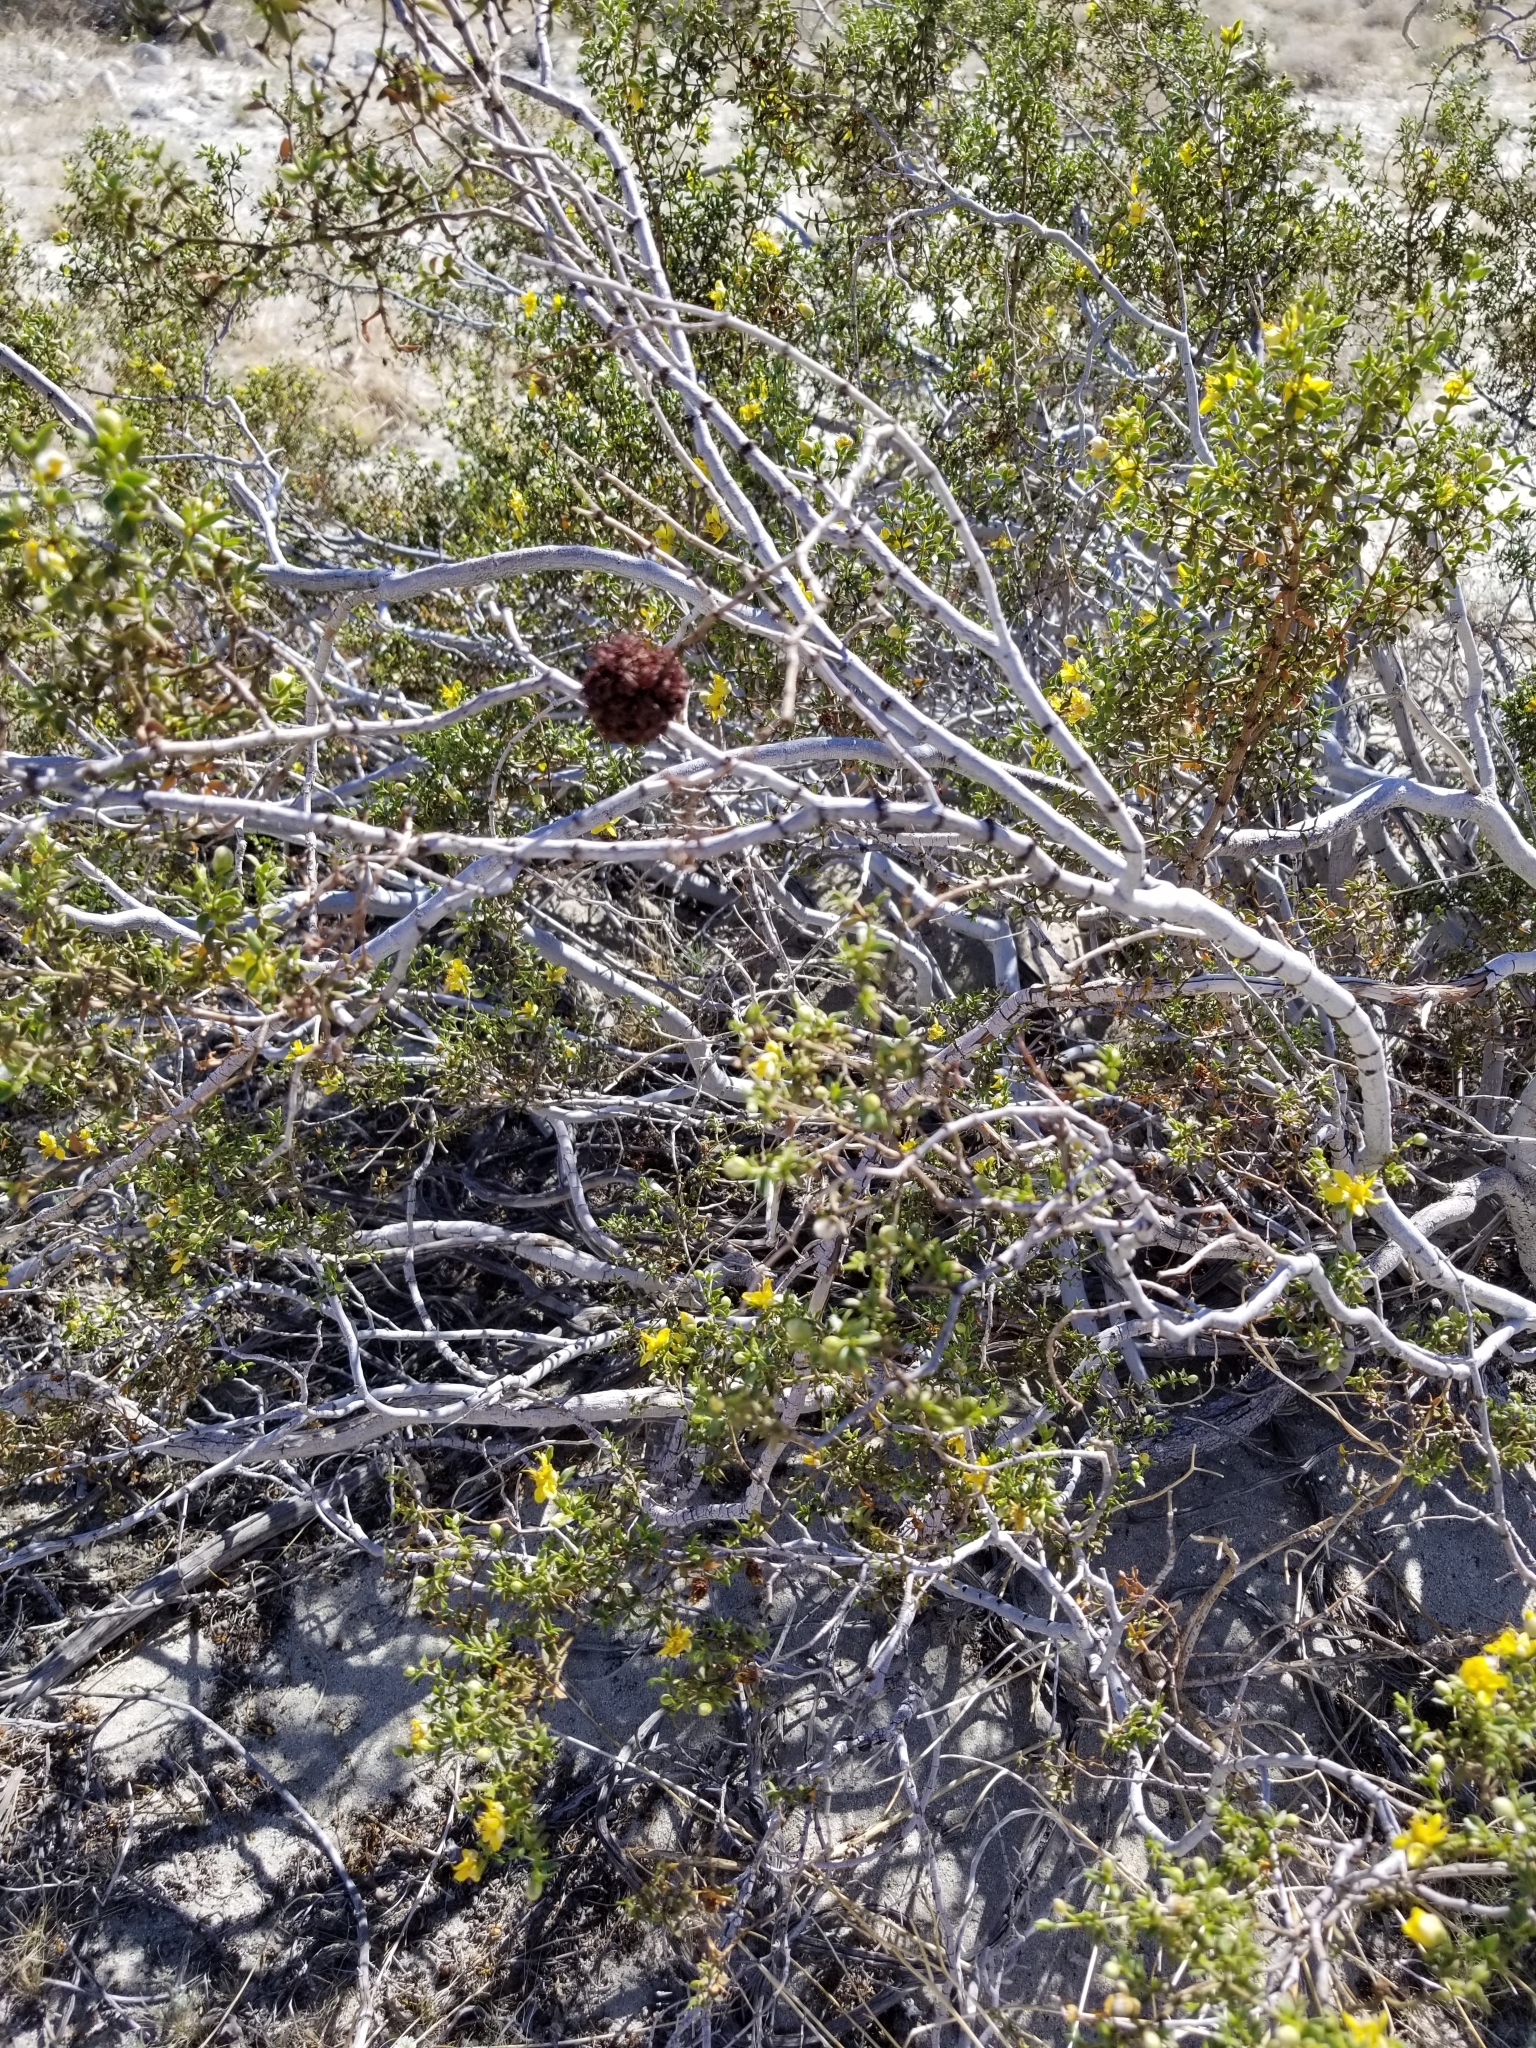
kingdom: Animalia
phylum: Arthropoda
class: Insecta
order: Diptera
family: Cecidomyiidae
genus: Asphondylia
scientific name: Asphondylia auripila
